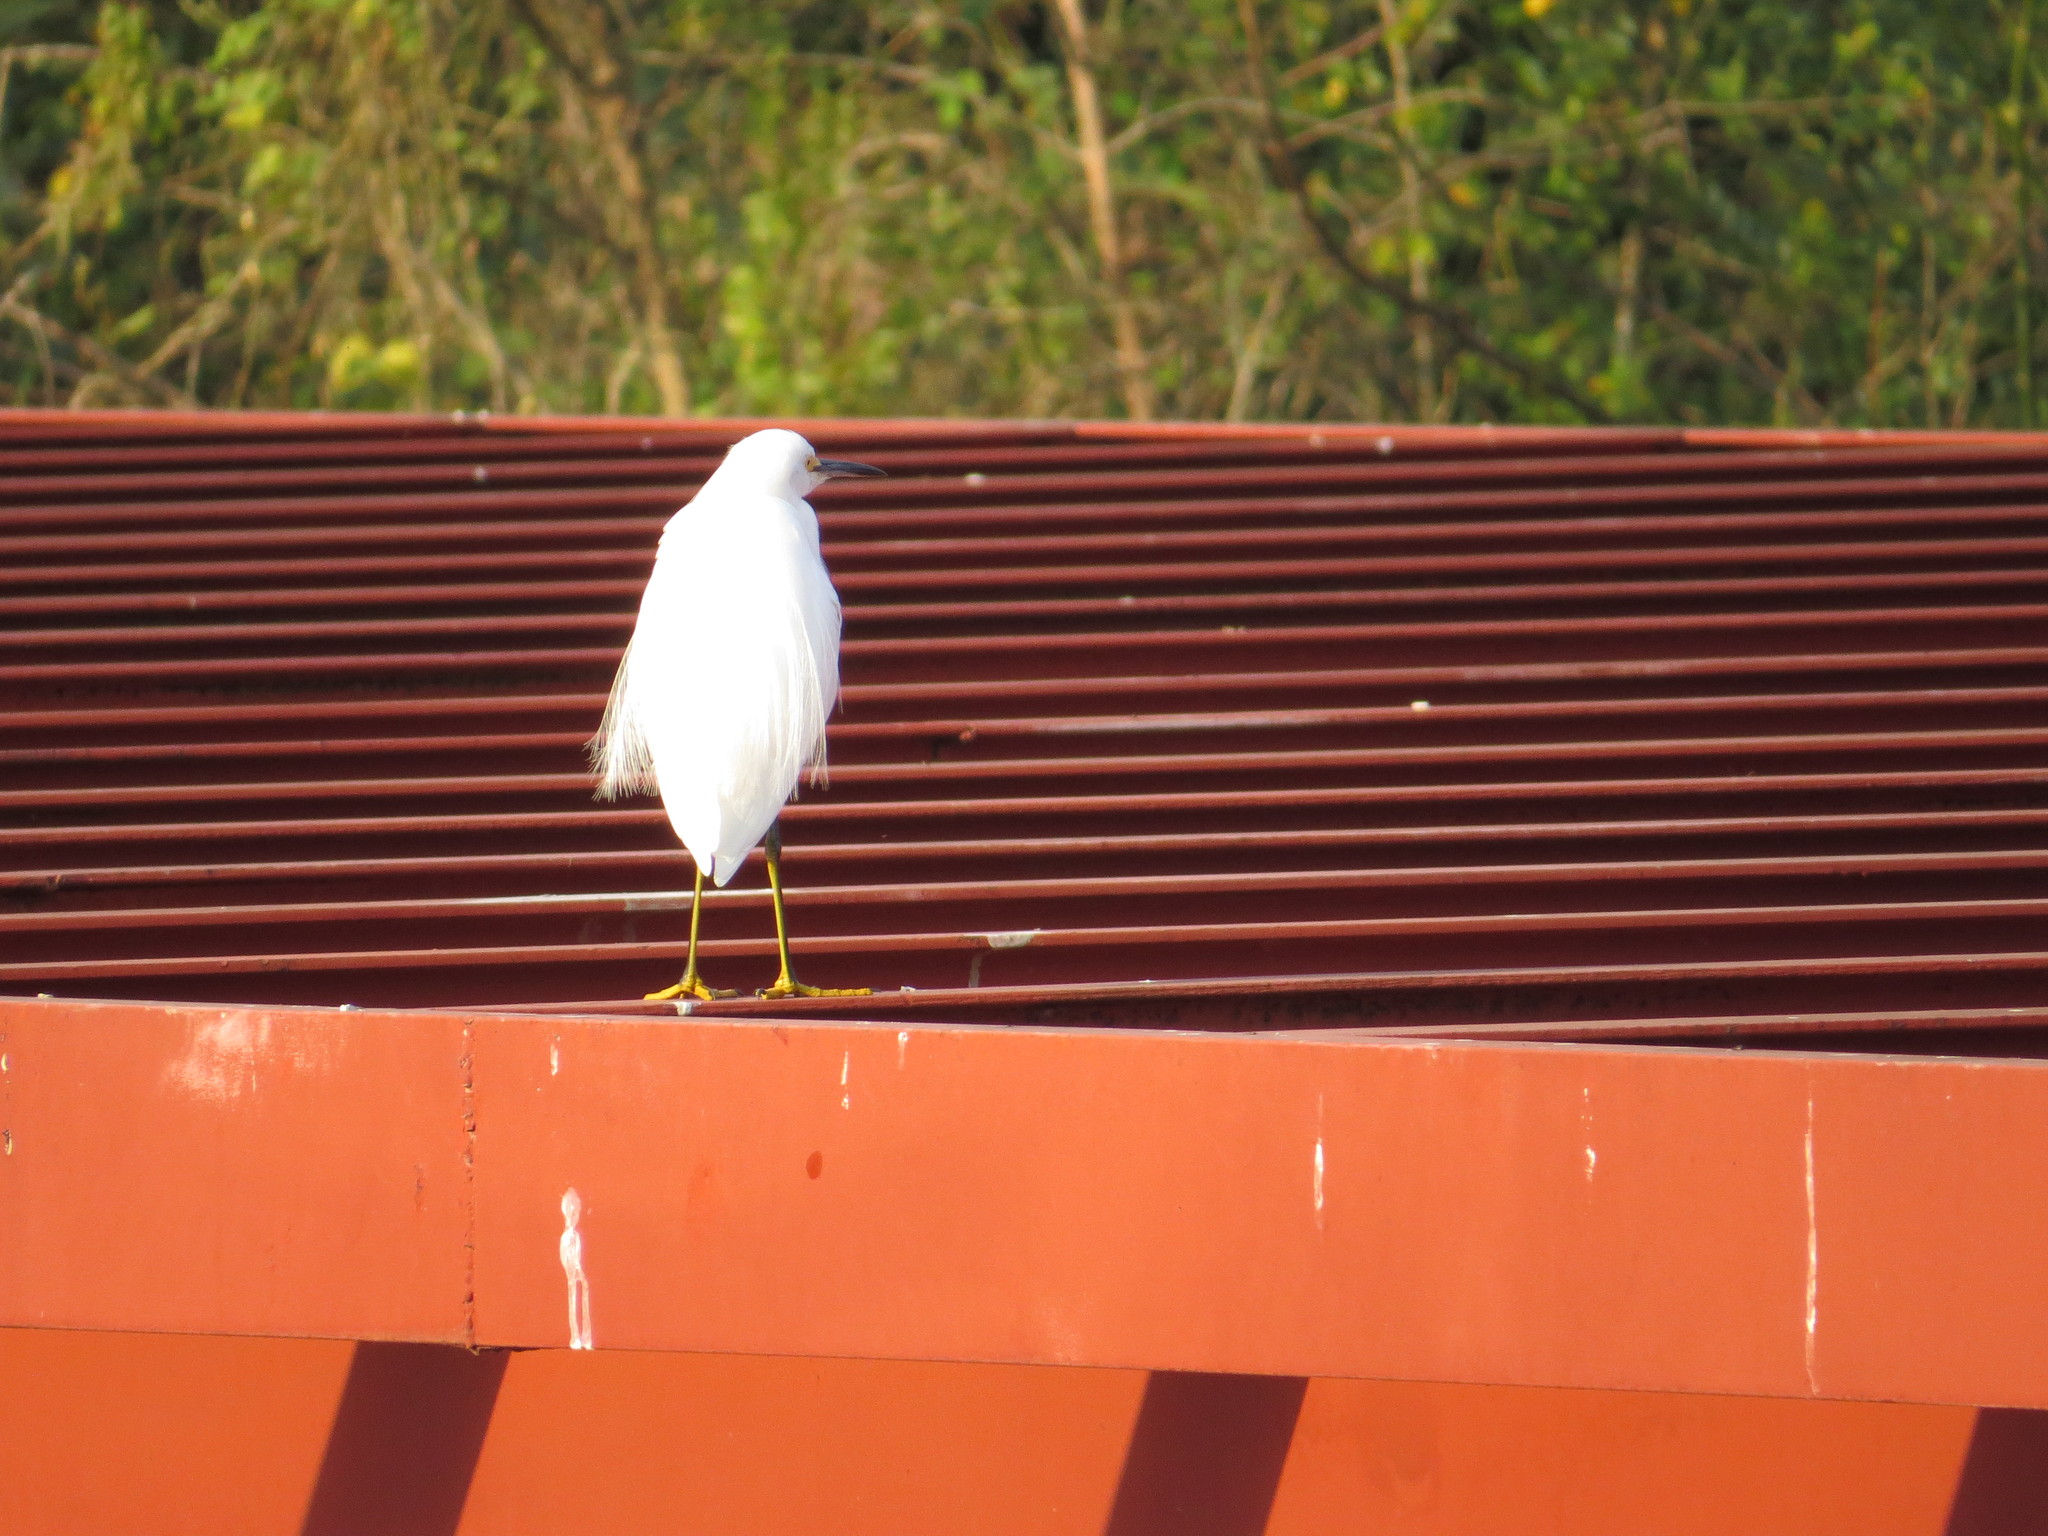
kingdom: Animalia
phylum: Chordata
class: Aves
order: Pelecaniformes
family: Ardeidae
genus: Egretta
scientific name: Egretta thula
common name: Snowy egret
